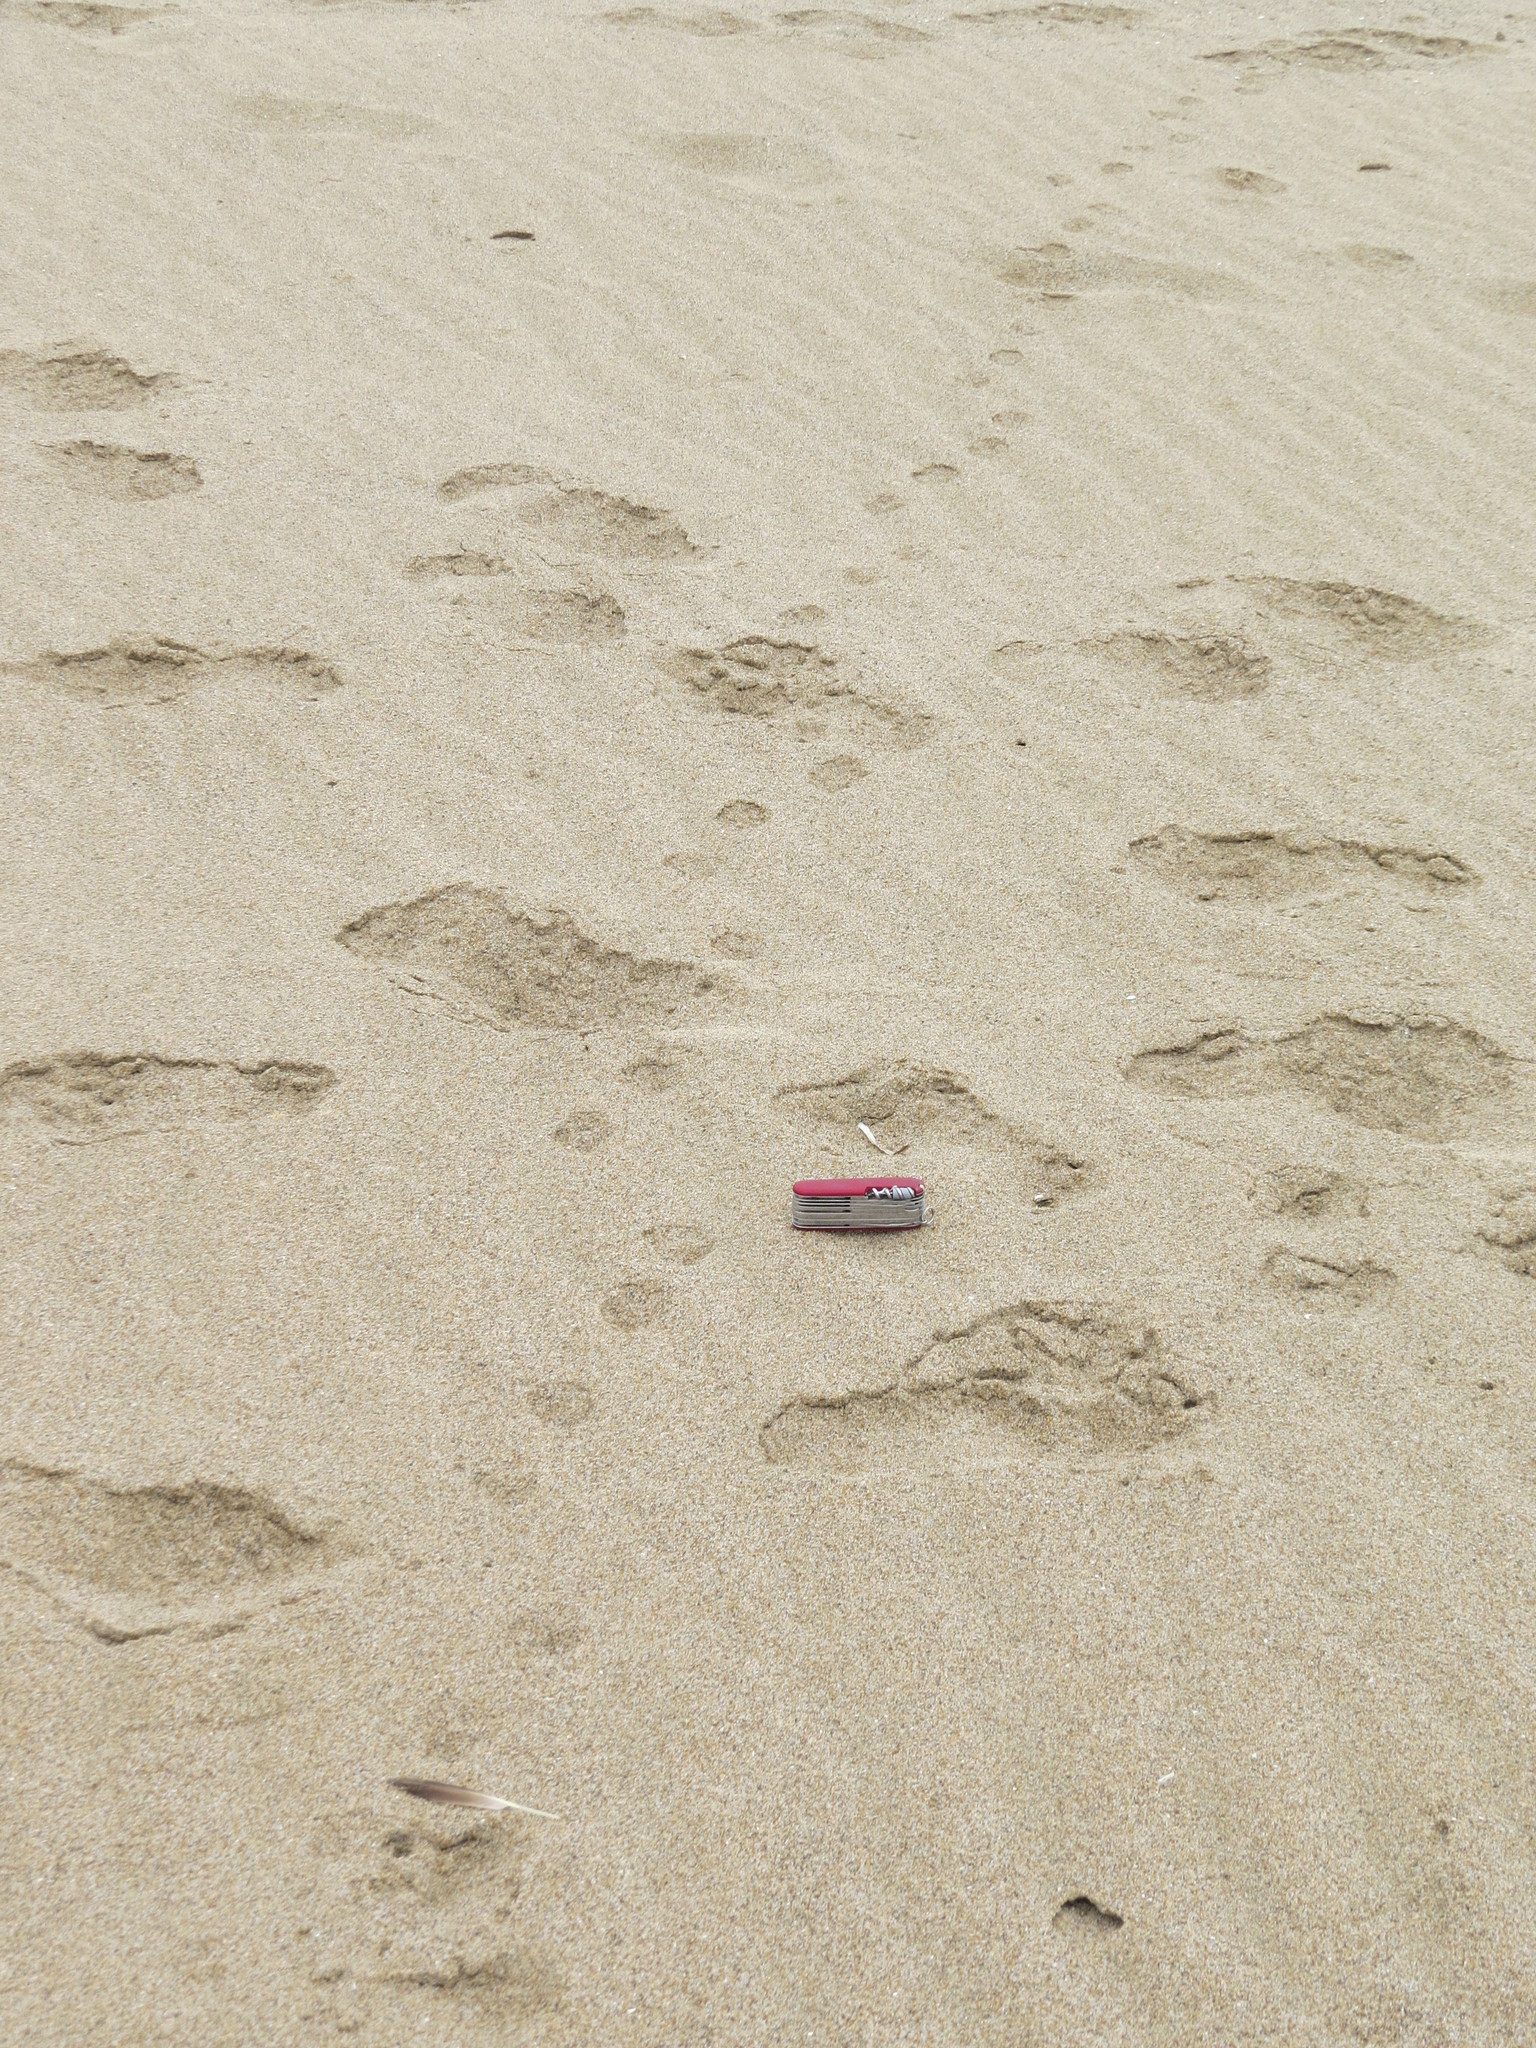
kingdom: Animalia
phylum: Chordata
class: Mammalia
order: Carnivora
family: Mephitidae
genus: Mephitis
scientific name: Mephitis mephitis
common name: Striped skunk
